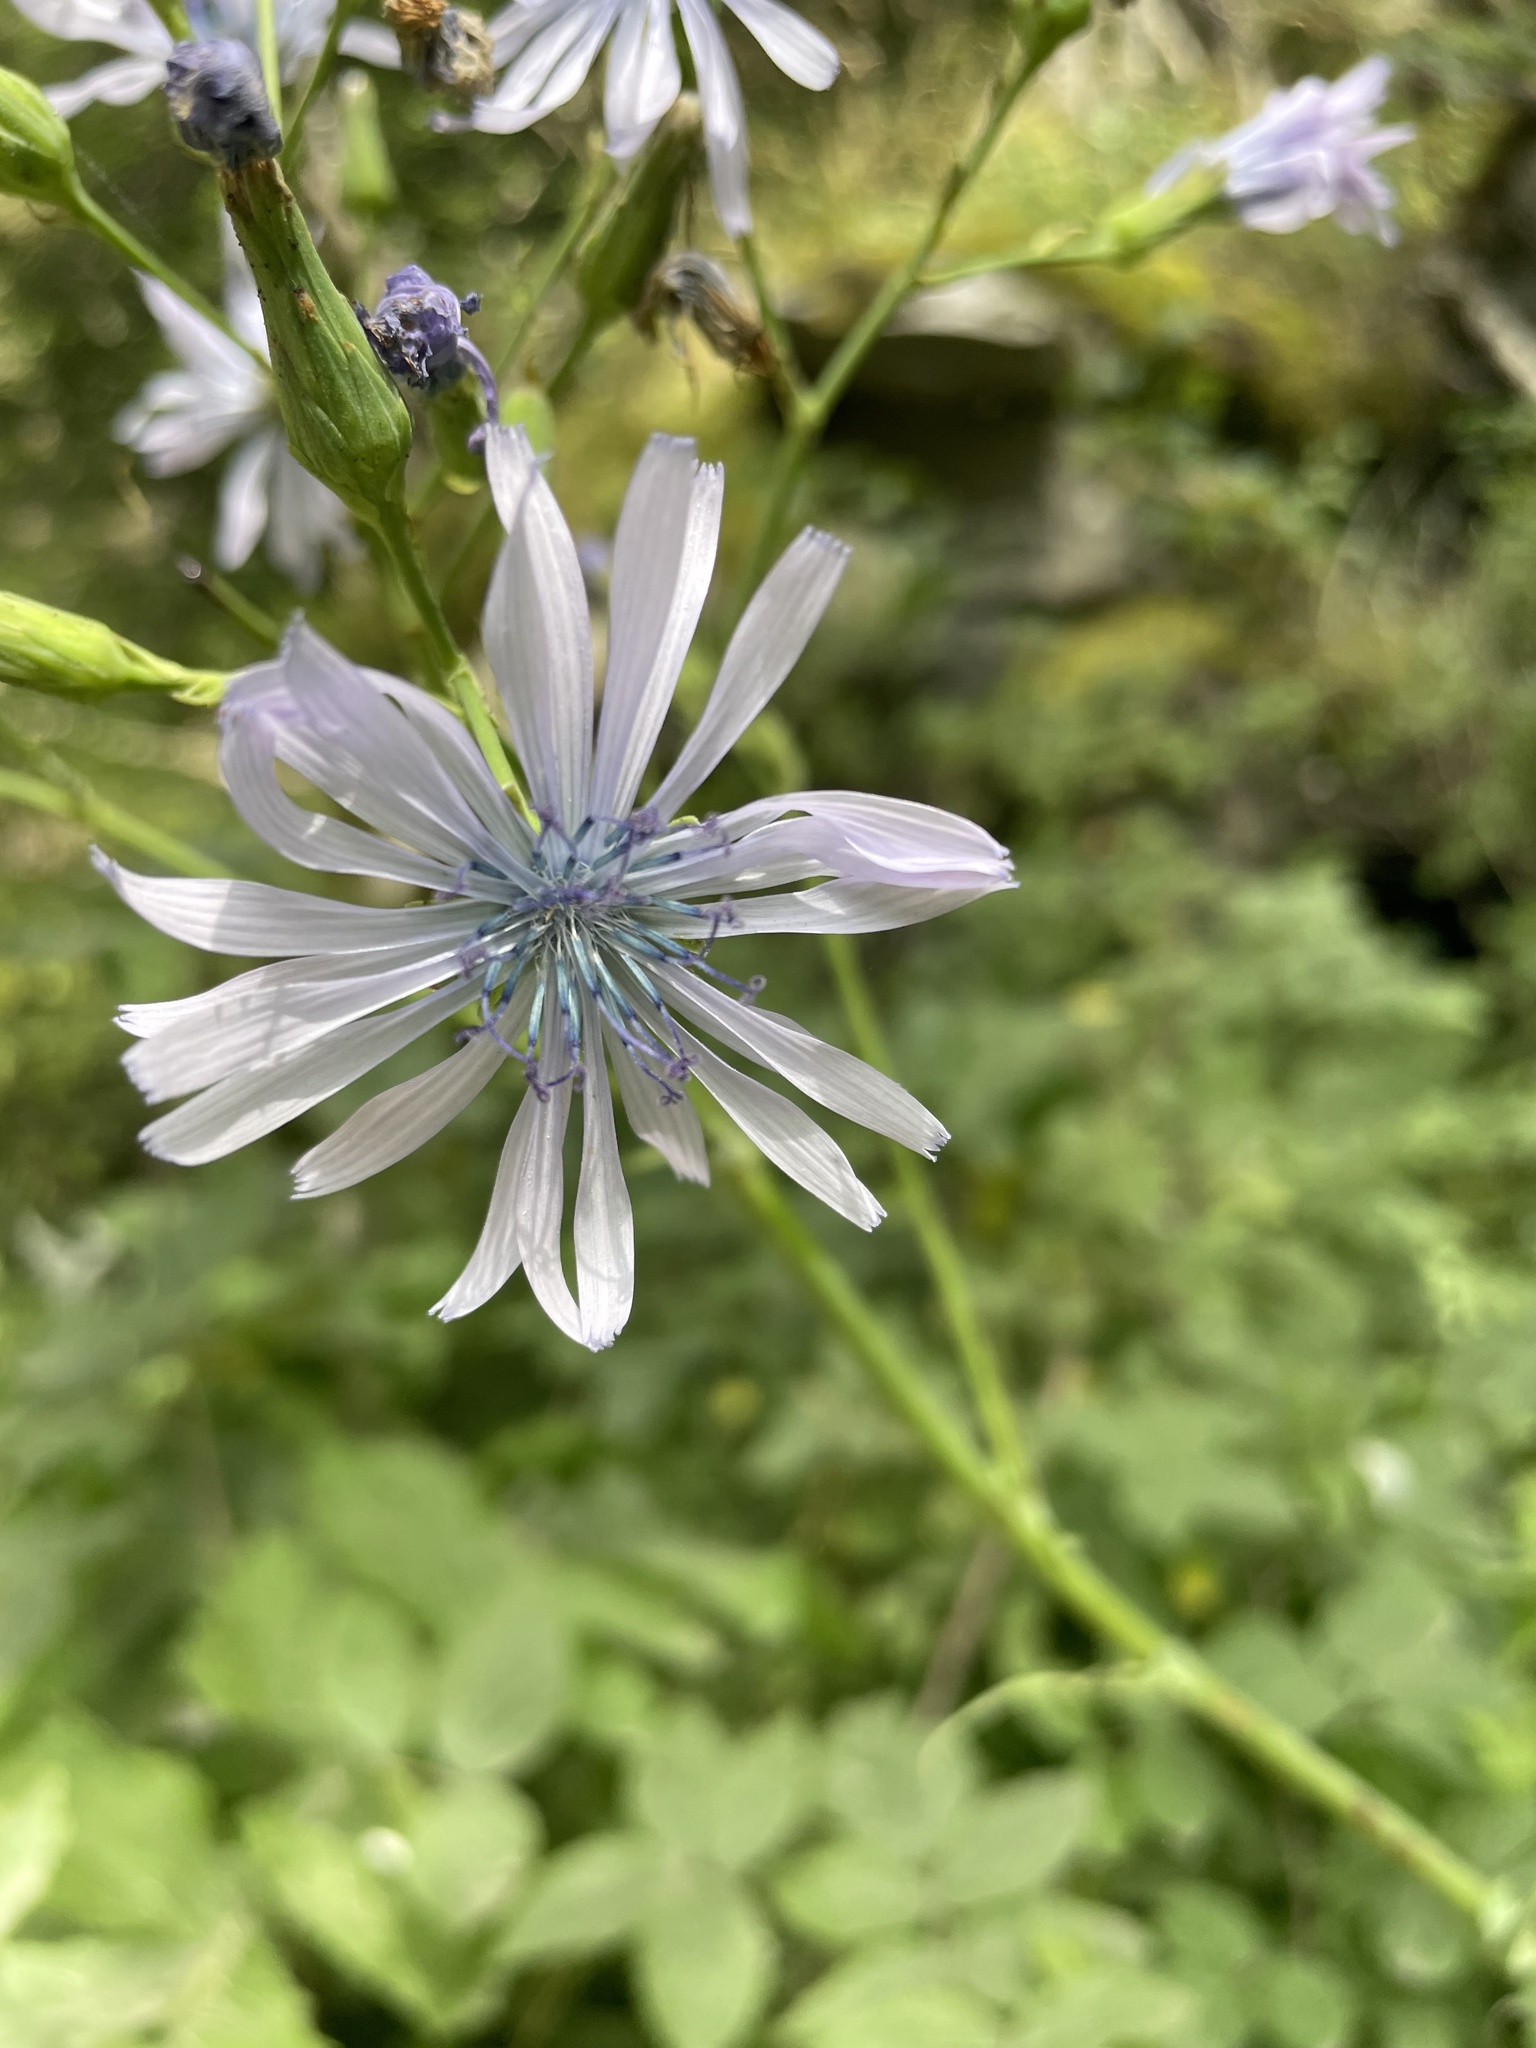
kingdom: Plantae
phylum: Tracheophyta
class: Magnoliopsida
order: Asterales
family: Asteraceae
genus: Lactuca
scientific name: Lactuca plumieri
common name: Hairless blue-sow-thistle
